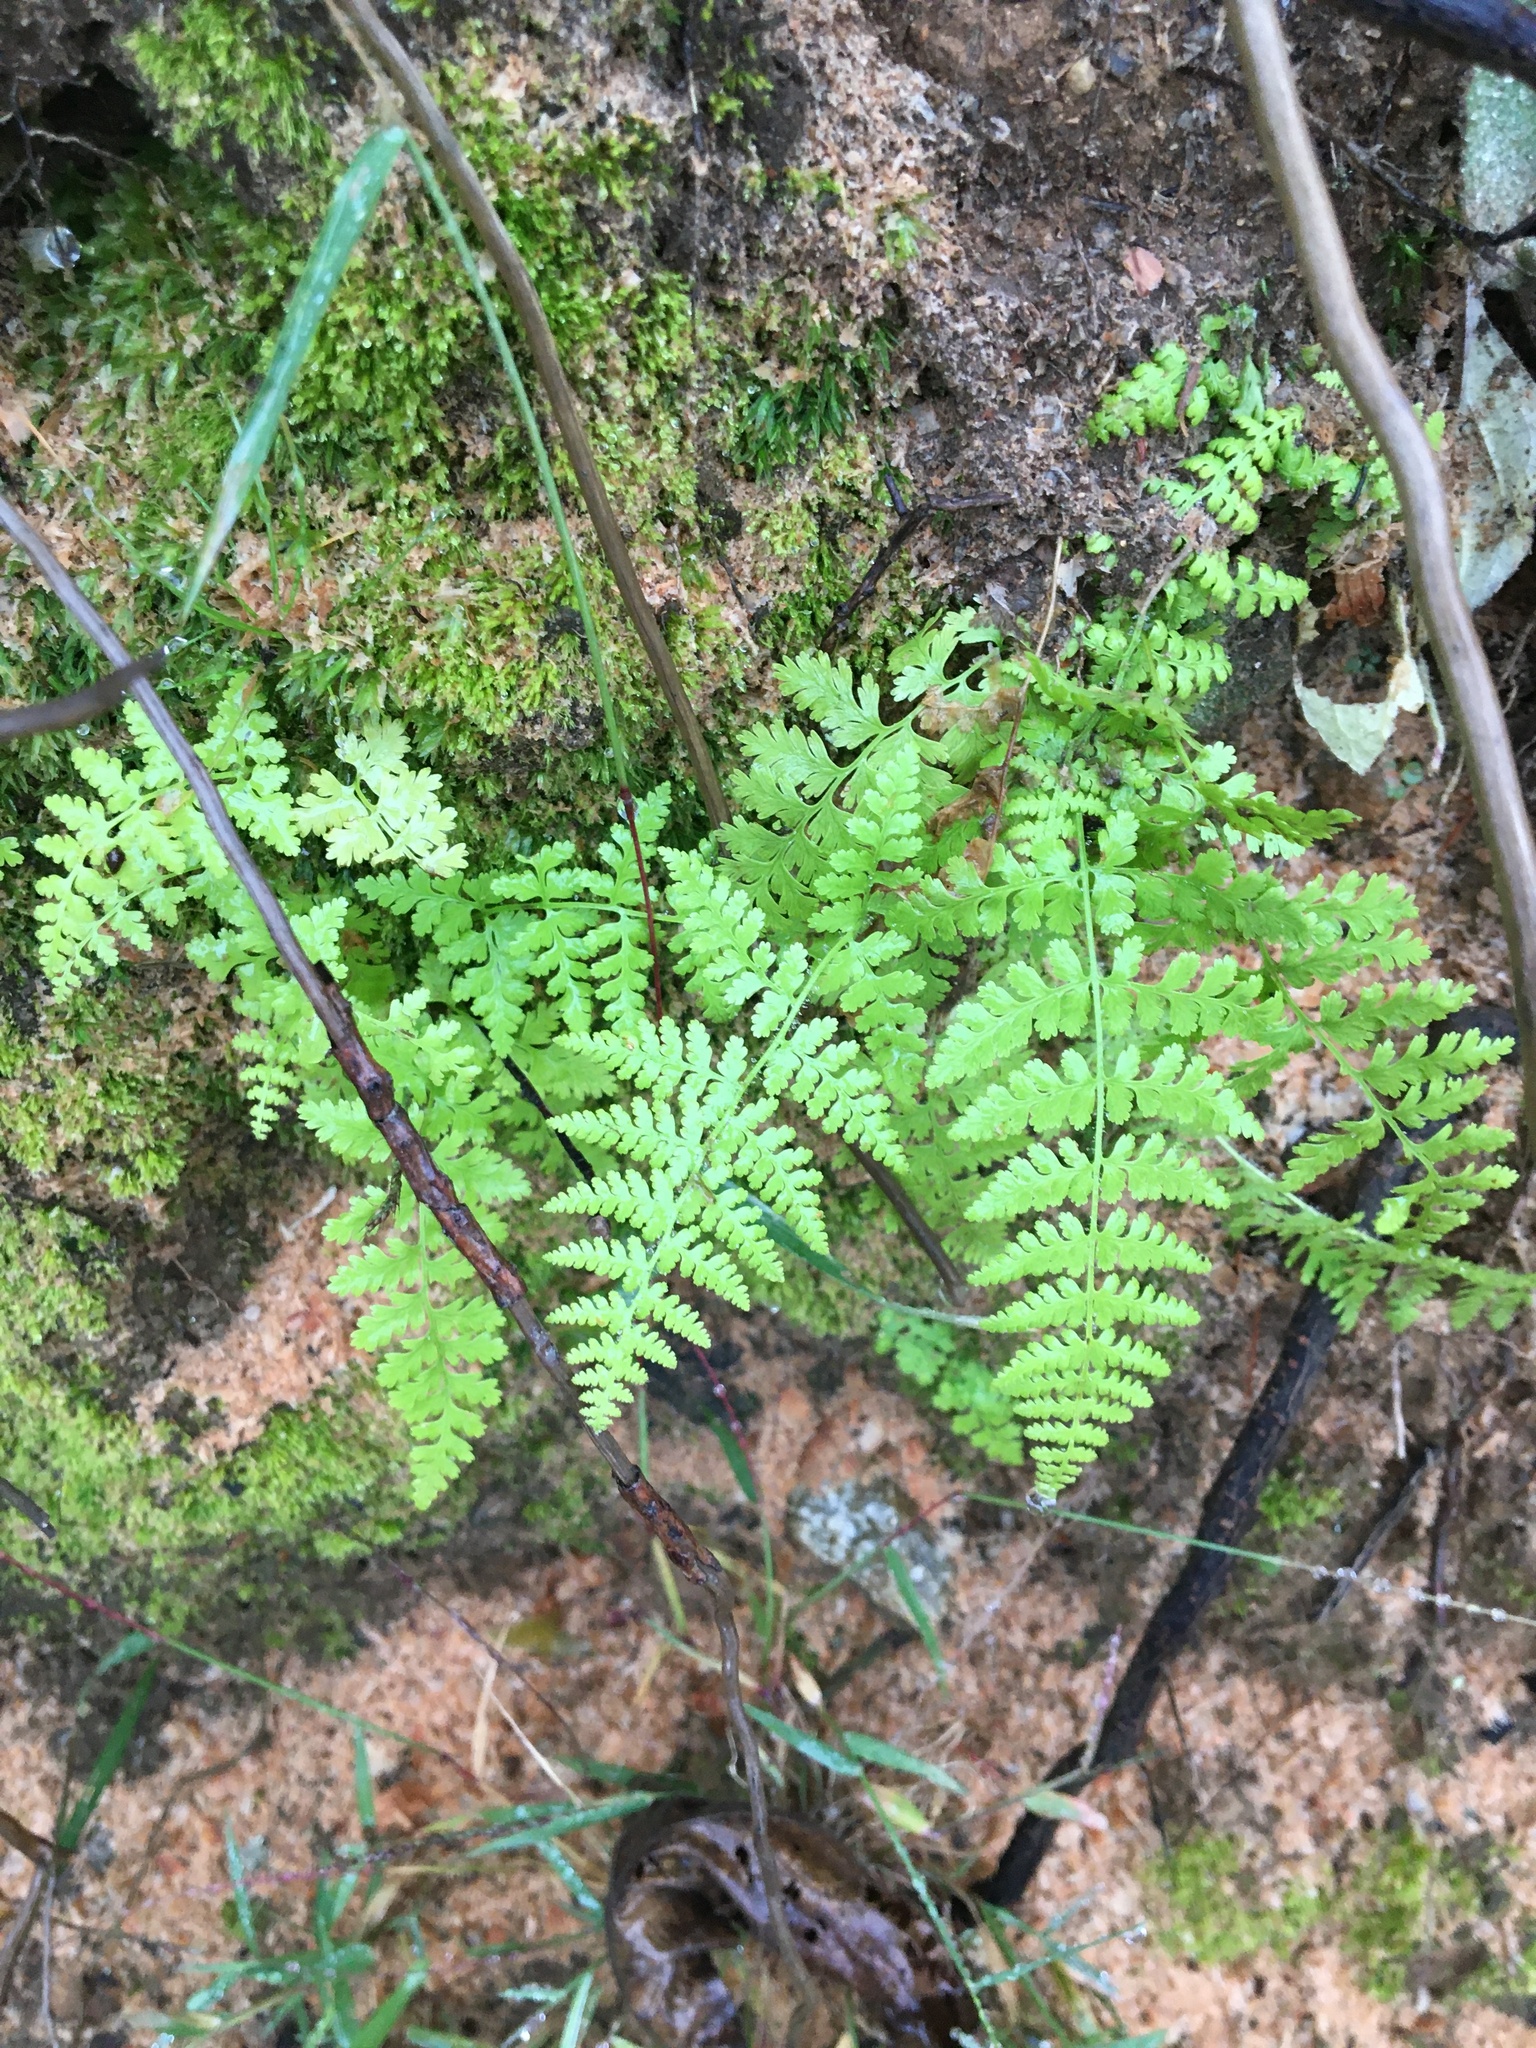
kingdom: Plantae
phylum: Tracheophyta
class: Polypodiopsida
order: Polypodiales
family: Woodsiaceae
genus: Physematium
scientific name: Physematium obtusum
